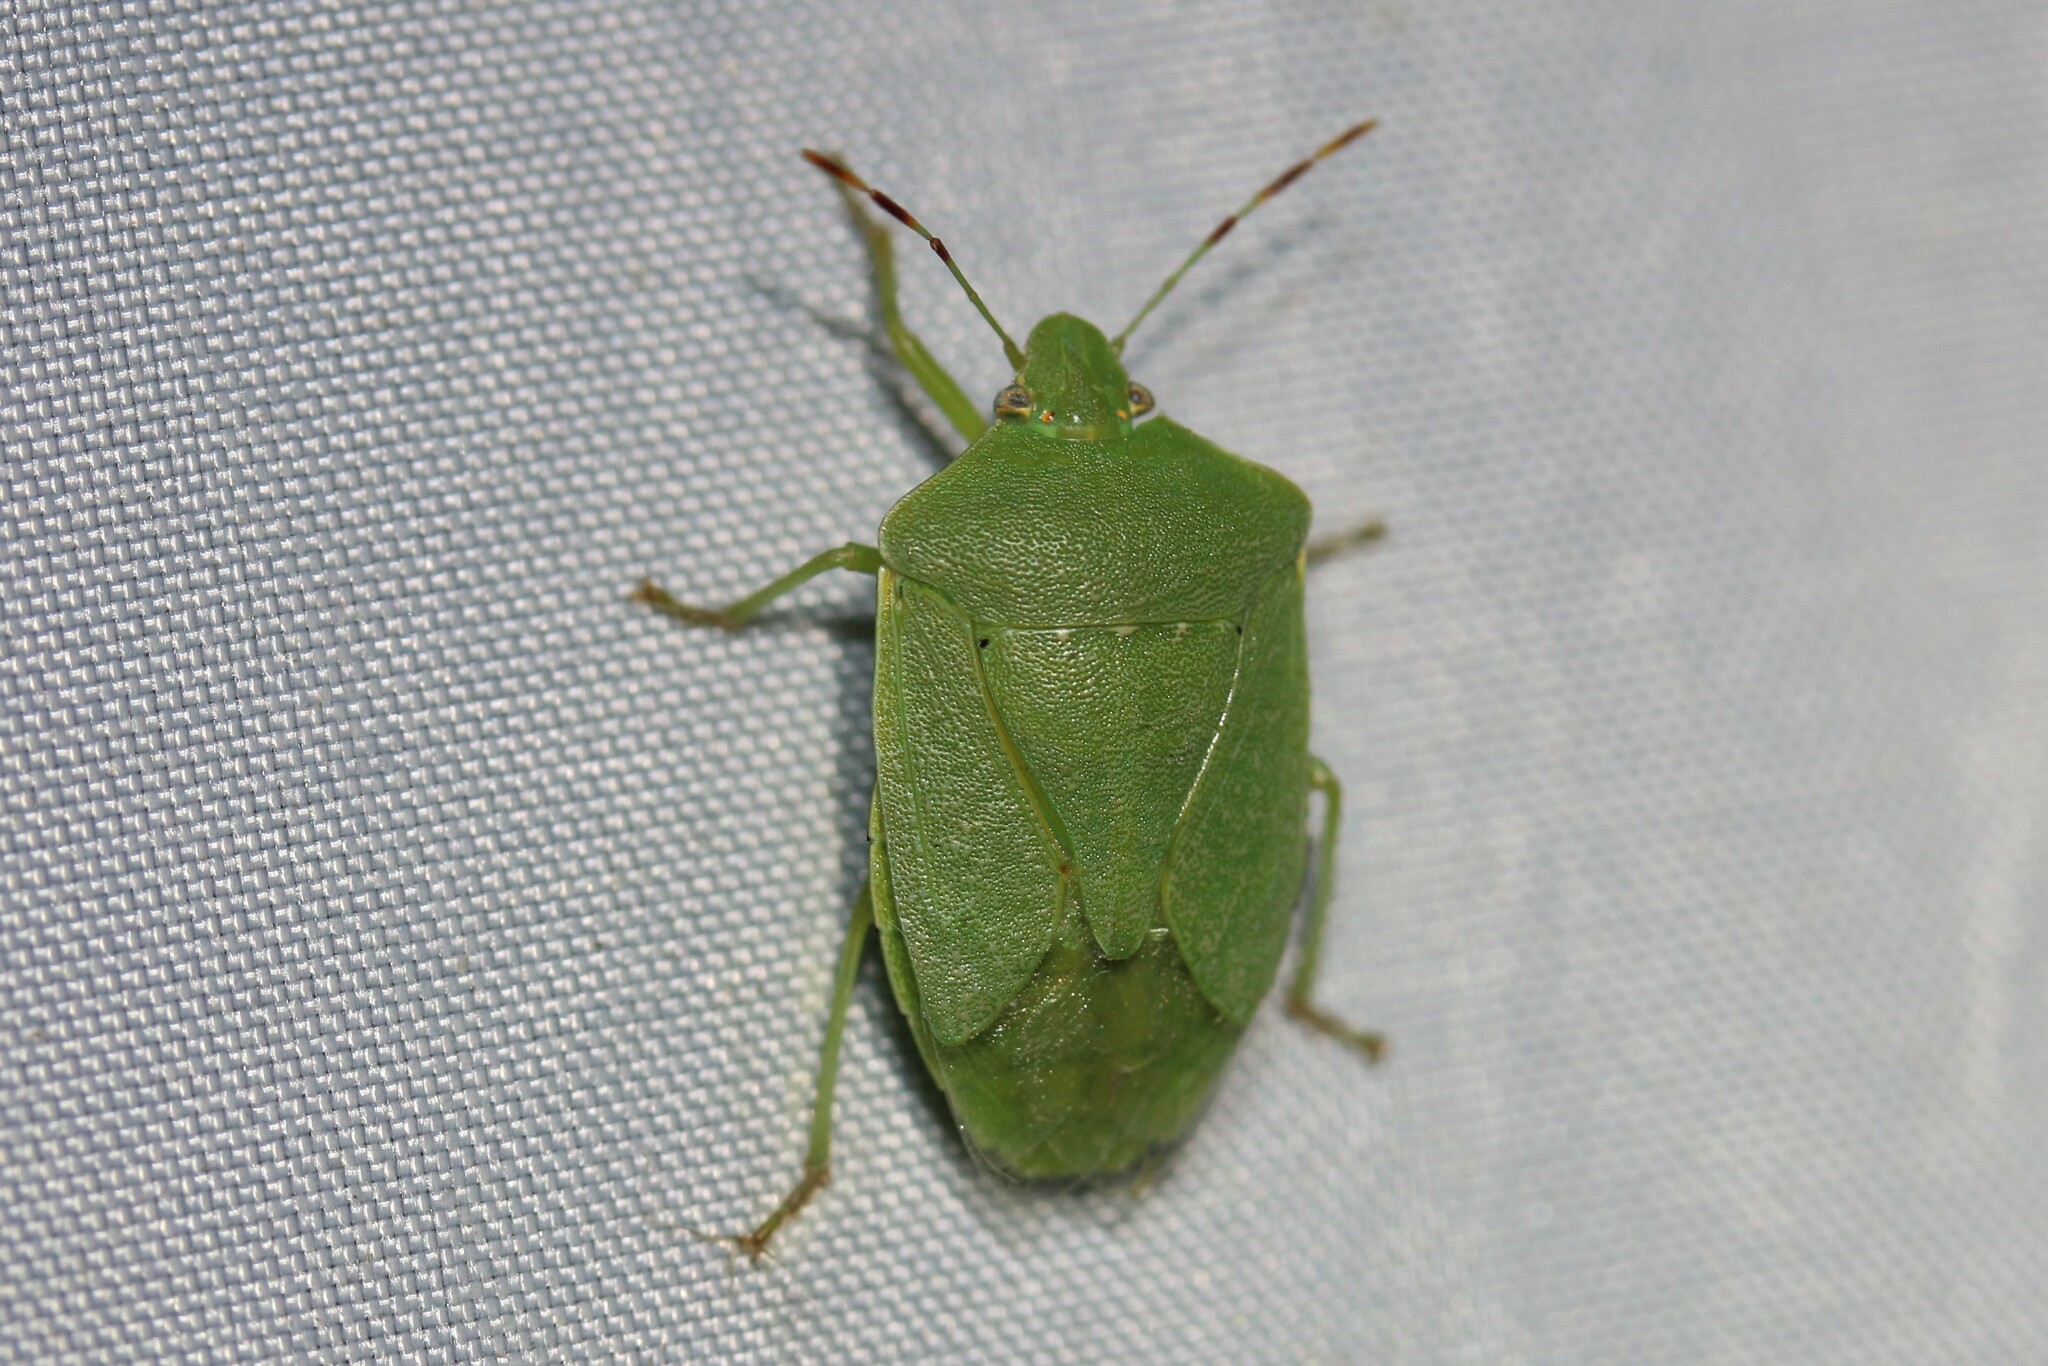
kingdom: Animalia
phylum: Arthropoda
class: Insecta
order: Hemiptera
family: Pentatomidae
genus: Nezara
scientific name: Nezara viridula
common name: Southern green stink bug
